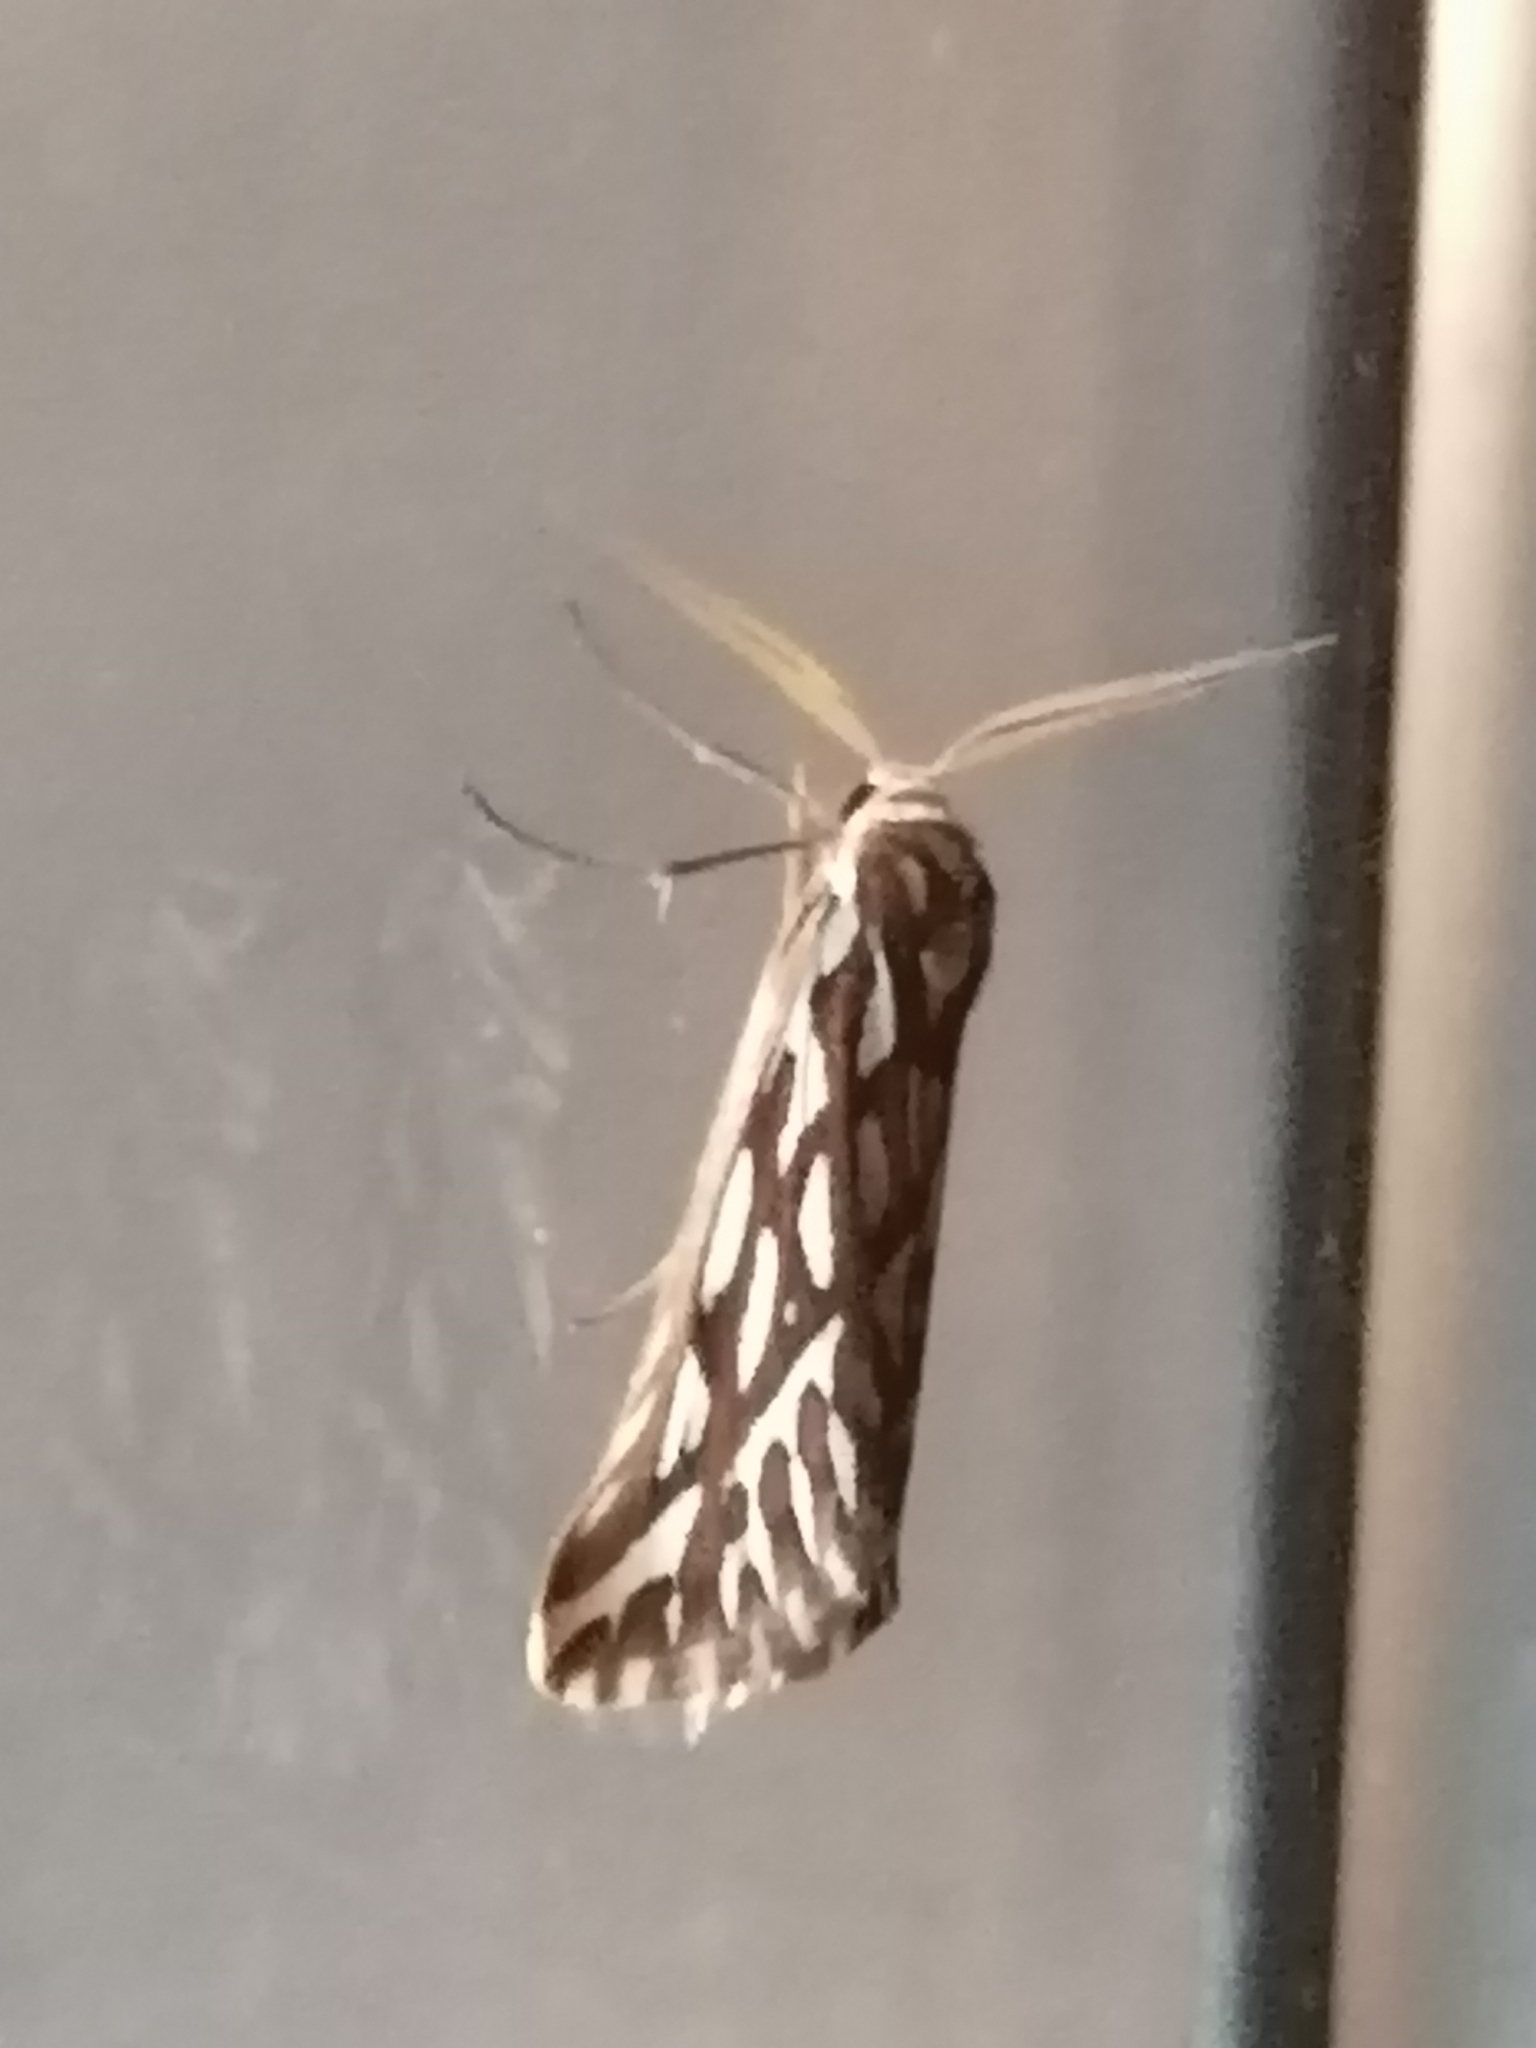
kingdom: Animalia
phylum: Arthropoda
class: Insecta
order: Lepidoptera
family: Erebidae
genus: Paralacydes
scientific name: Paralacydes vocula
